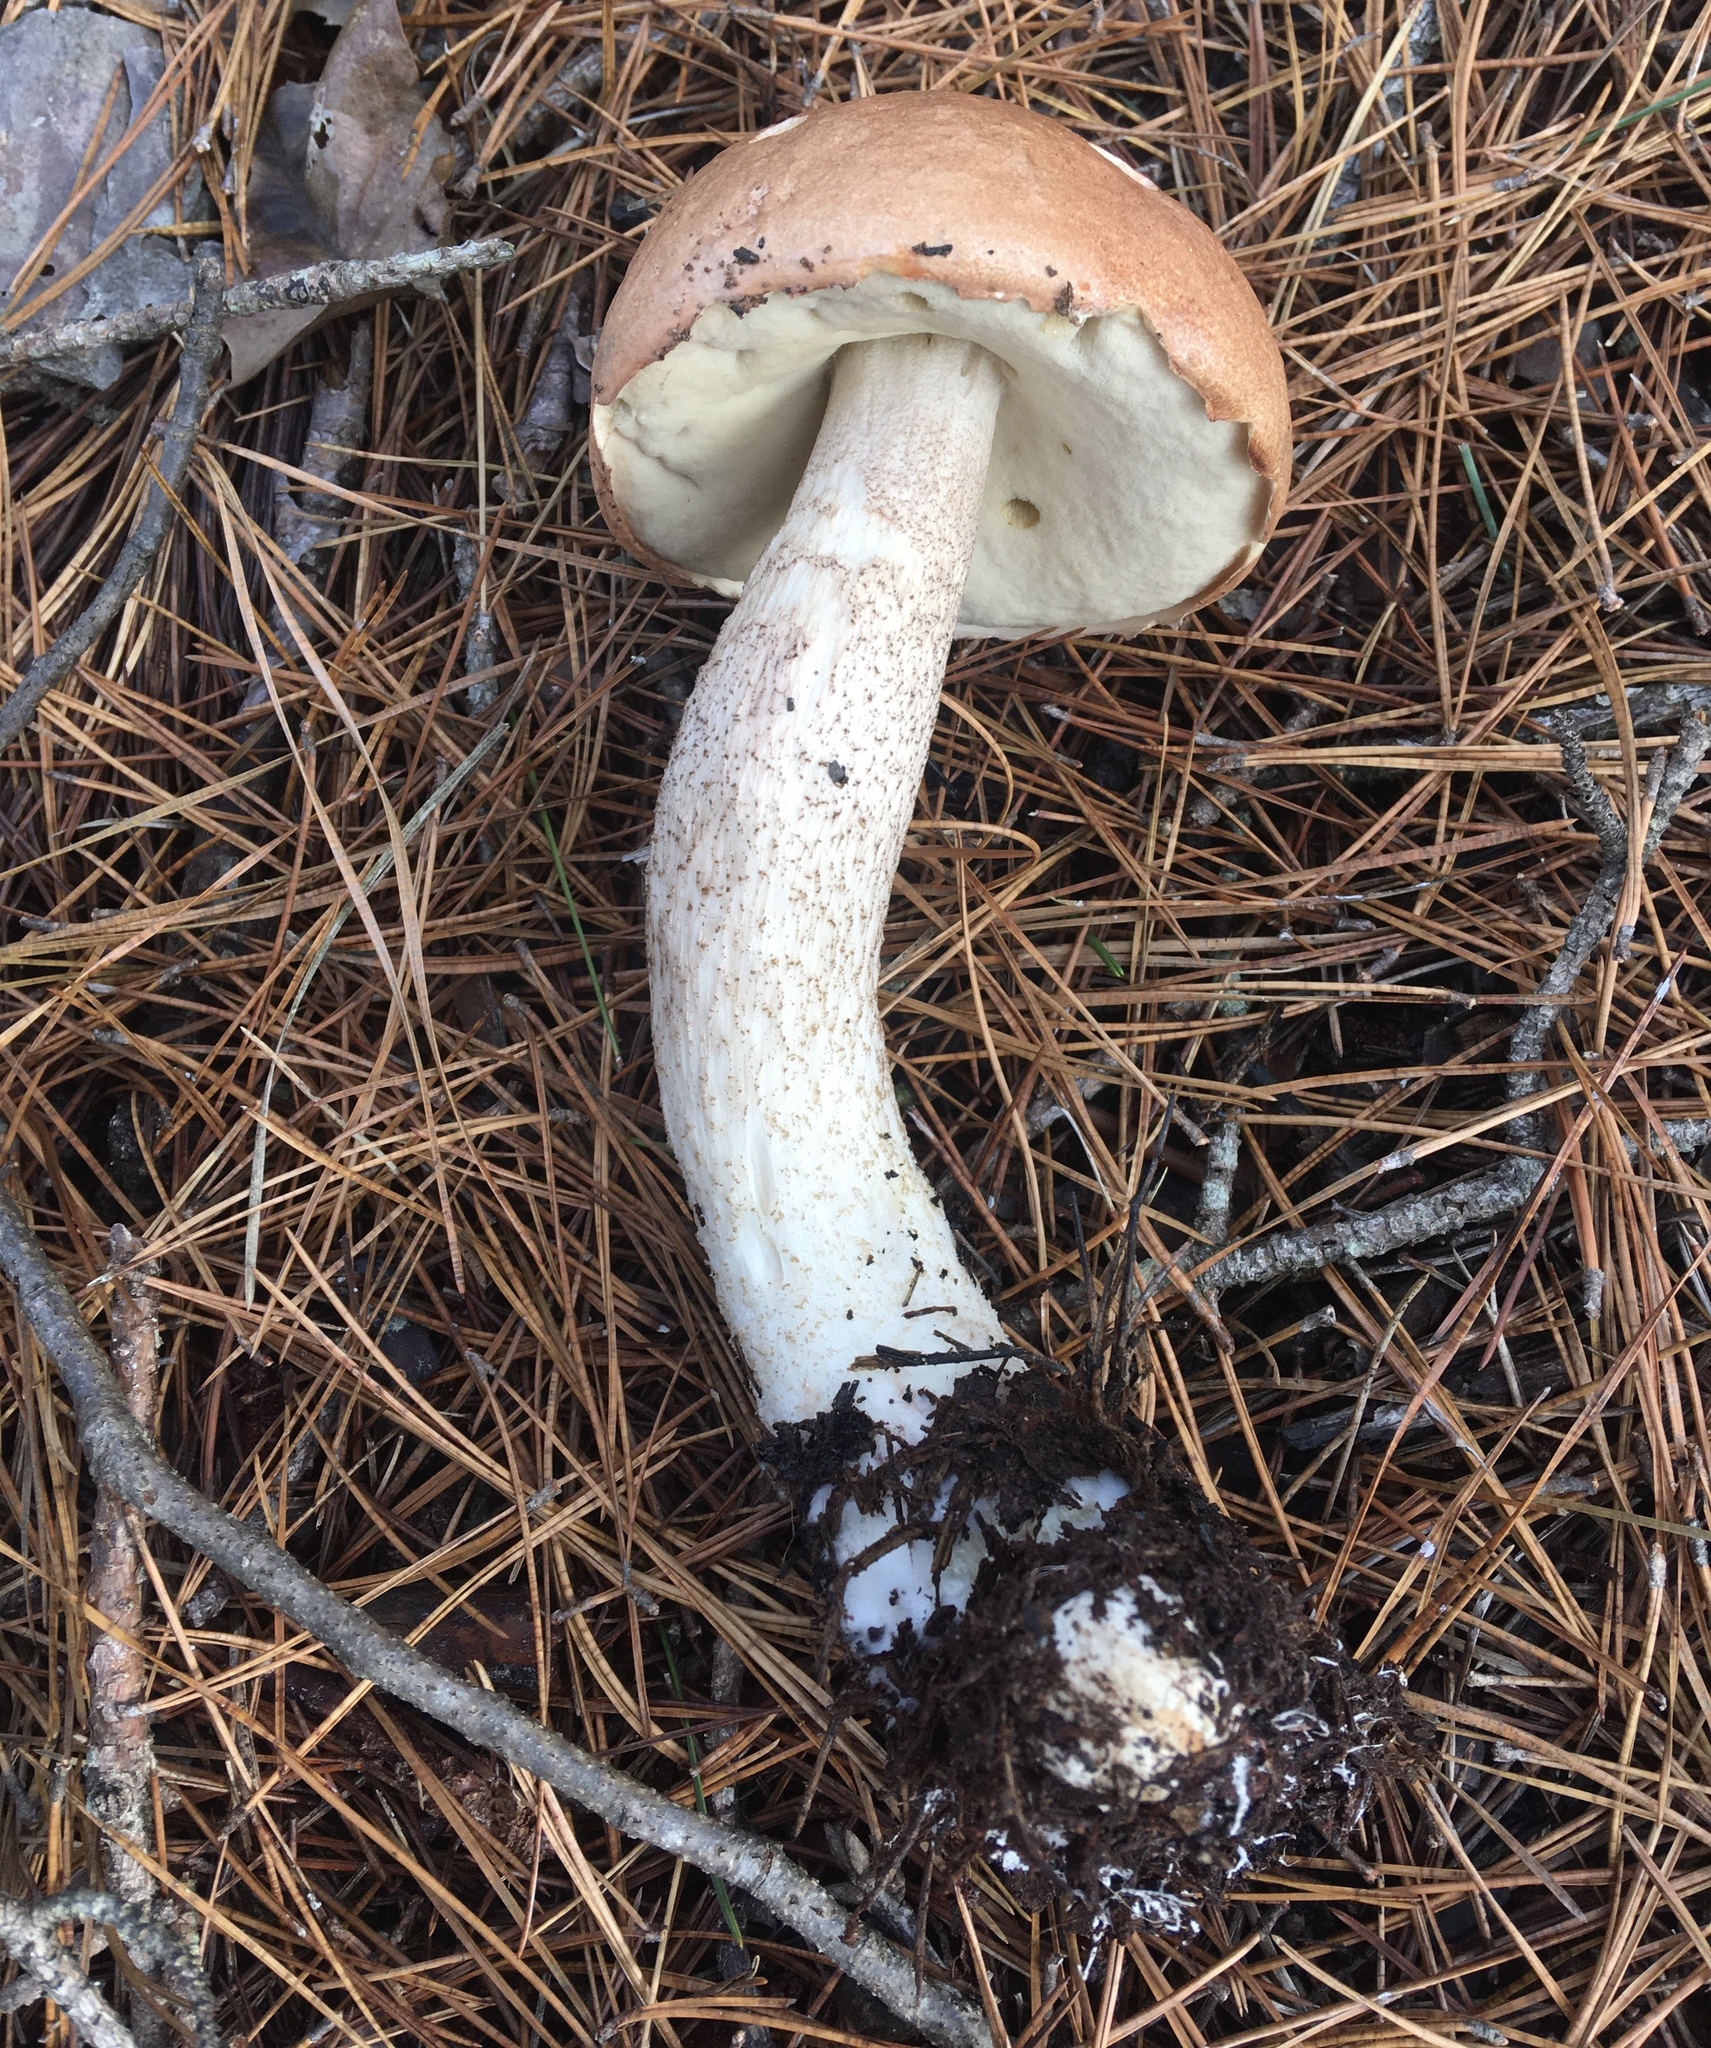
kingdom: Fungi
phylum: Basidiomycota
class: Agaricomycetes
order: Boletales
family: Boletaceae
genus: Leccinum
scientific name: Leccinum piceinum
